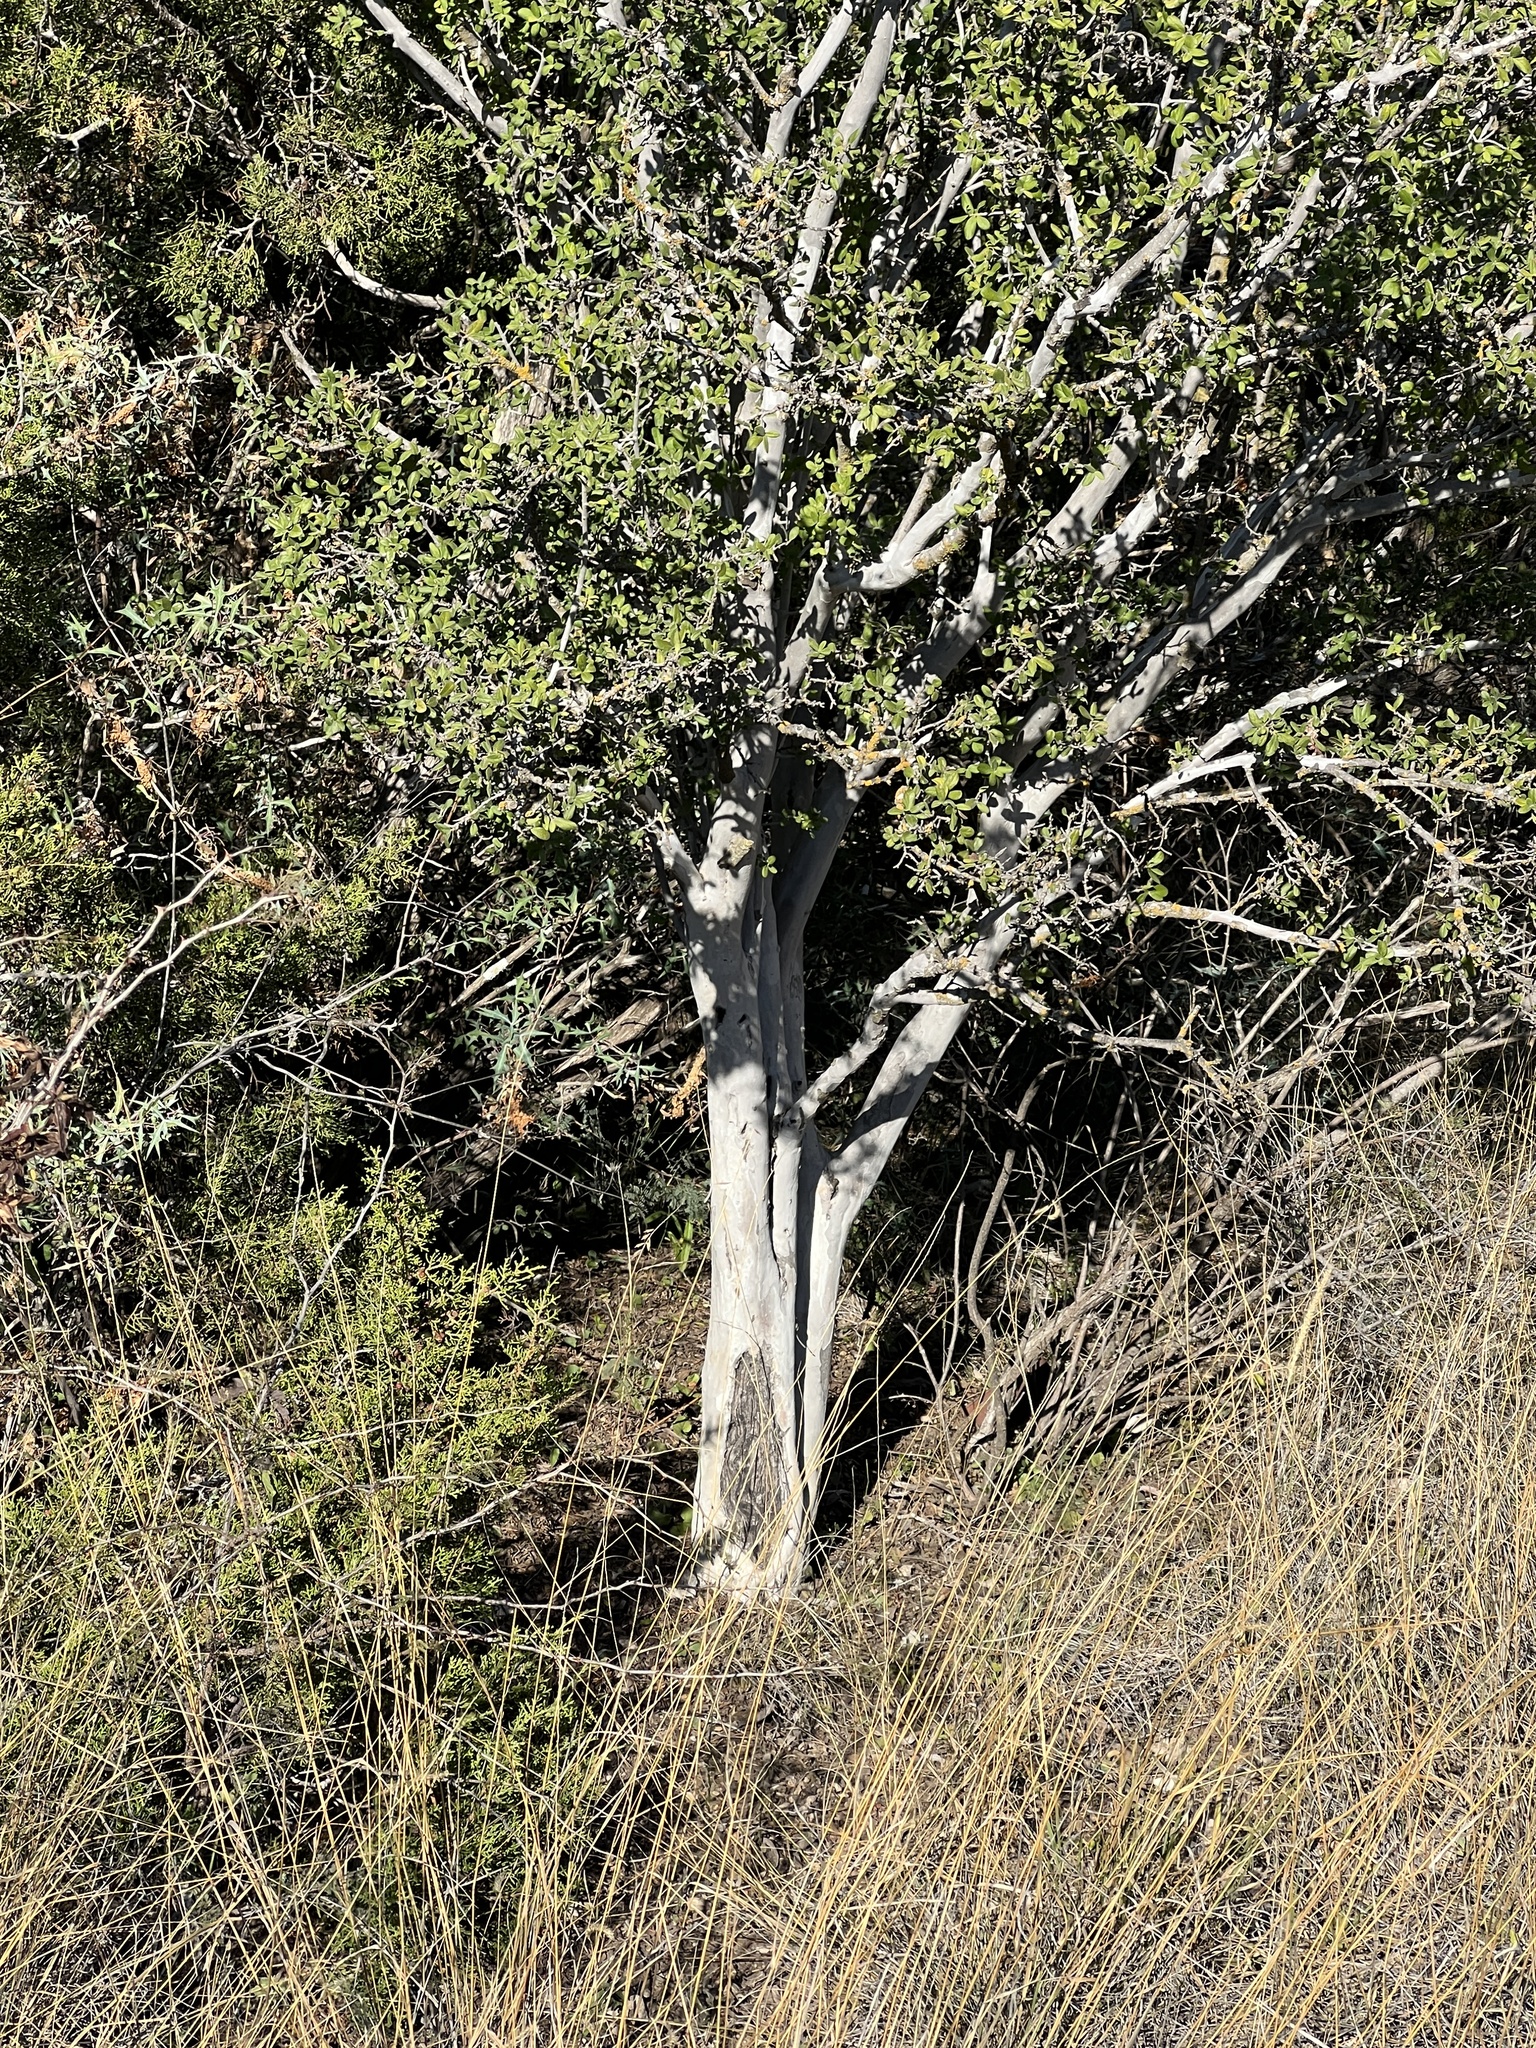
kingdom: Plantae
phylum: Tracheophyta
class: Magnoliopsida
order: Ericales
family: Ebenaceae
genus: Diospyros
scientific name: Diospyros texana
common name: Texas persimmon
